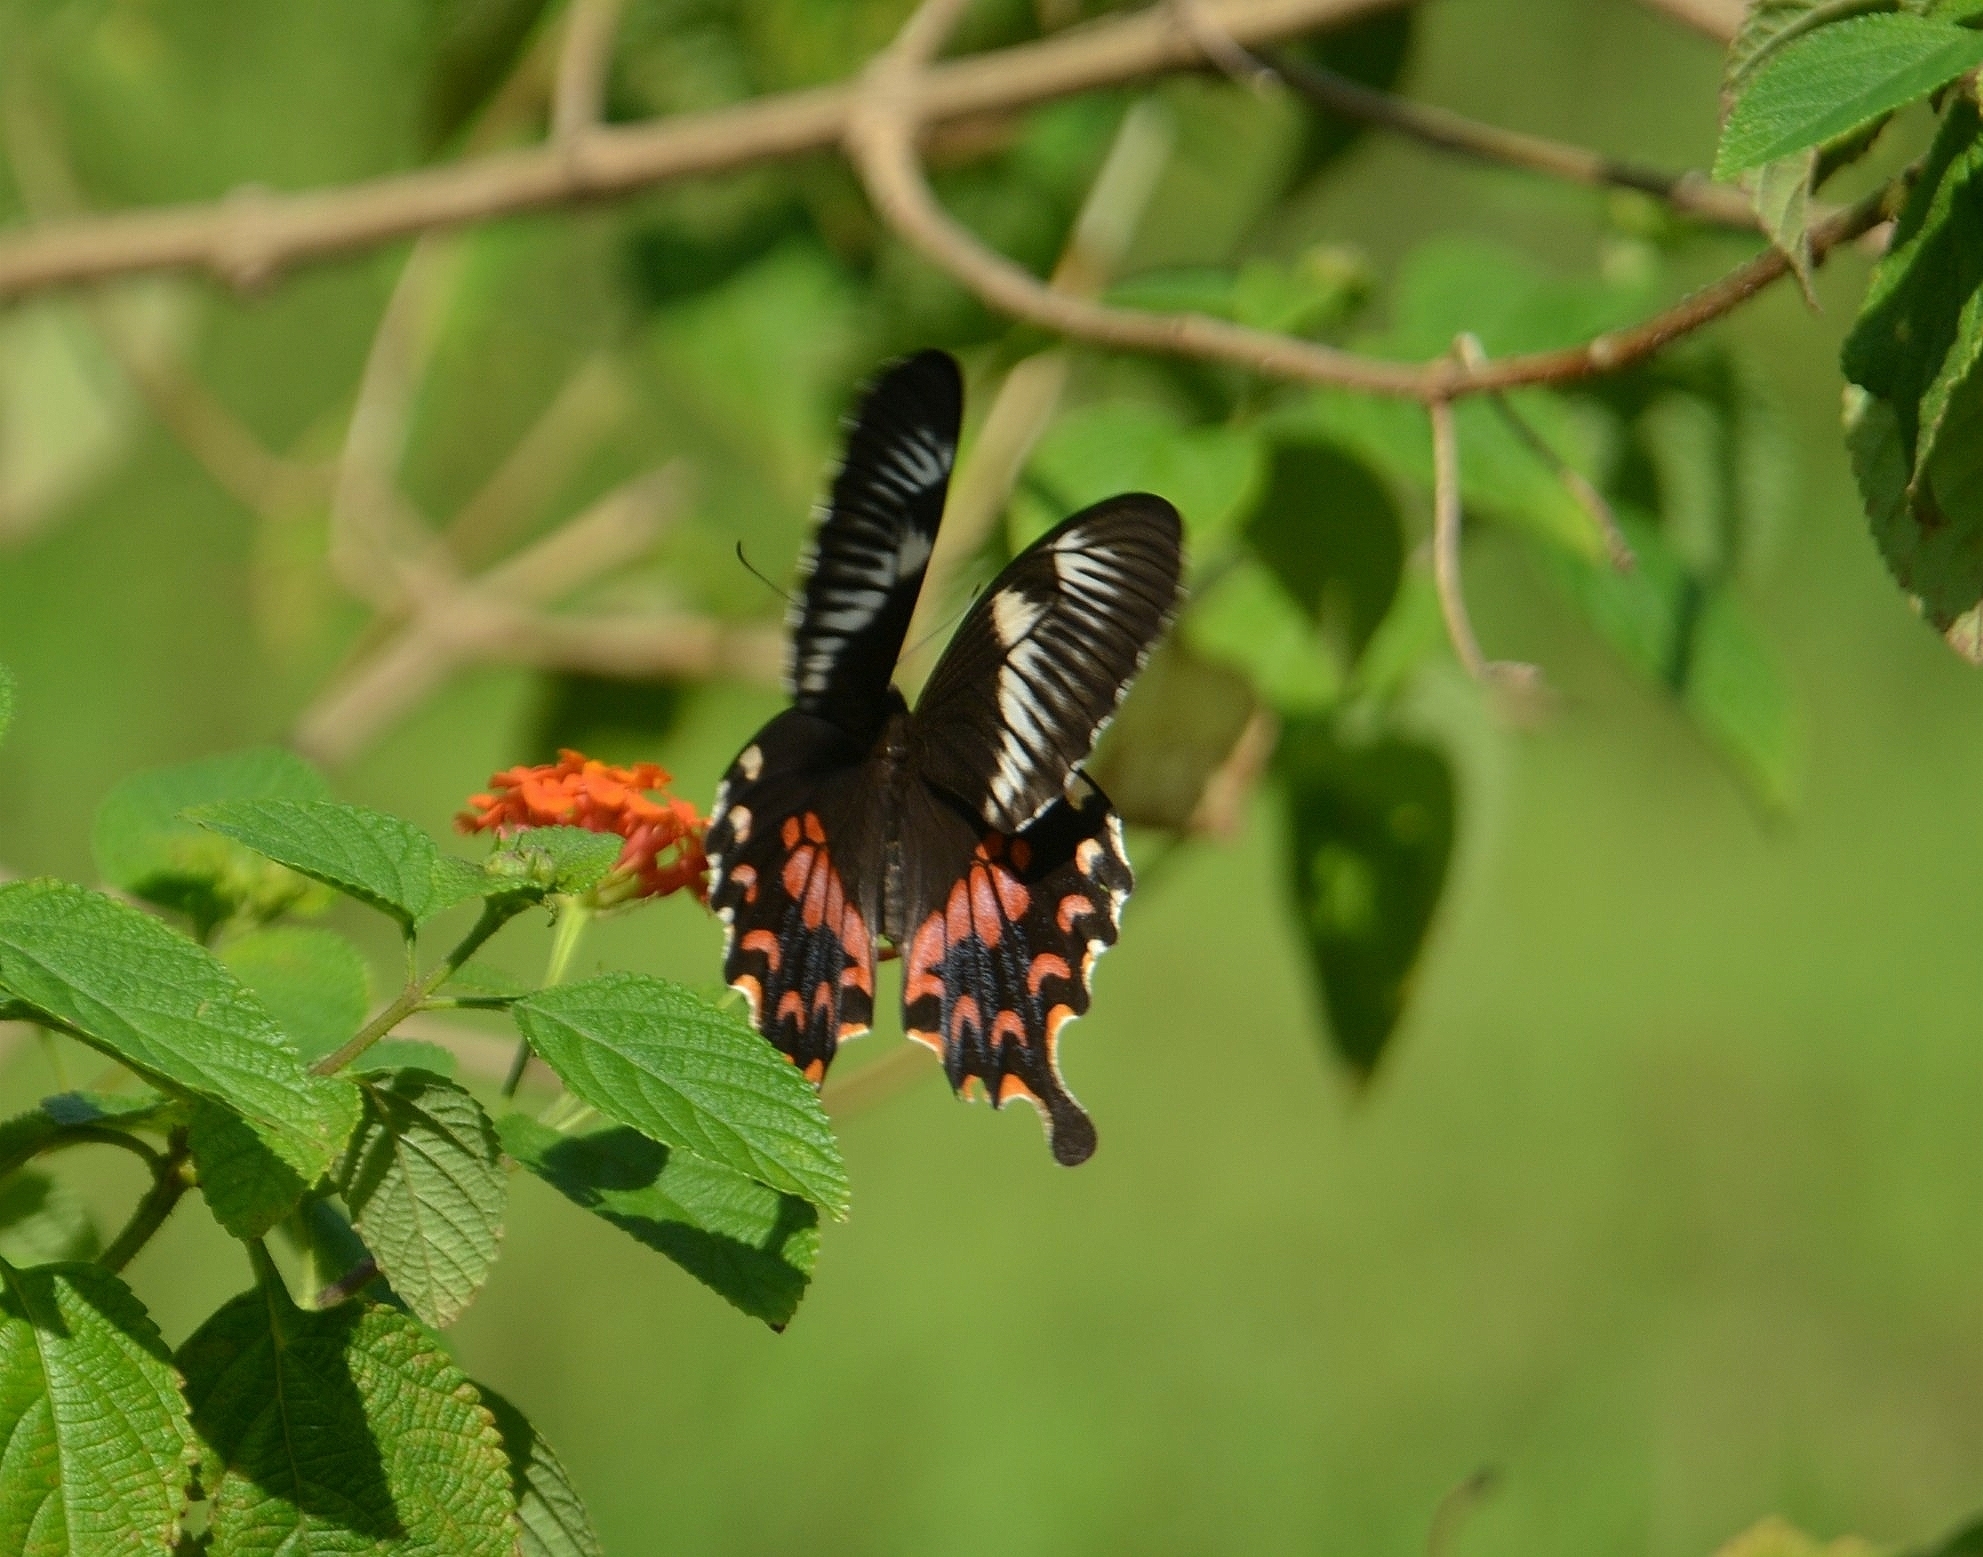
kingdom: Animalia
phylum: Arthropoda
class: Insecta
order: Lepidoptera
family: Papilionidae
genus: Papilio
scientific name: Papilio polytes
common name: Common mormon
